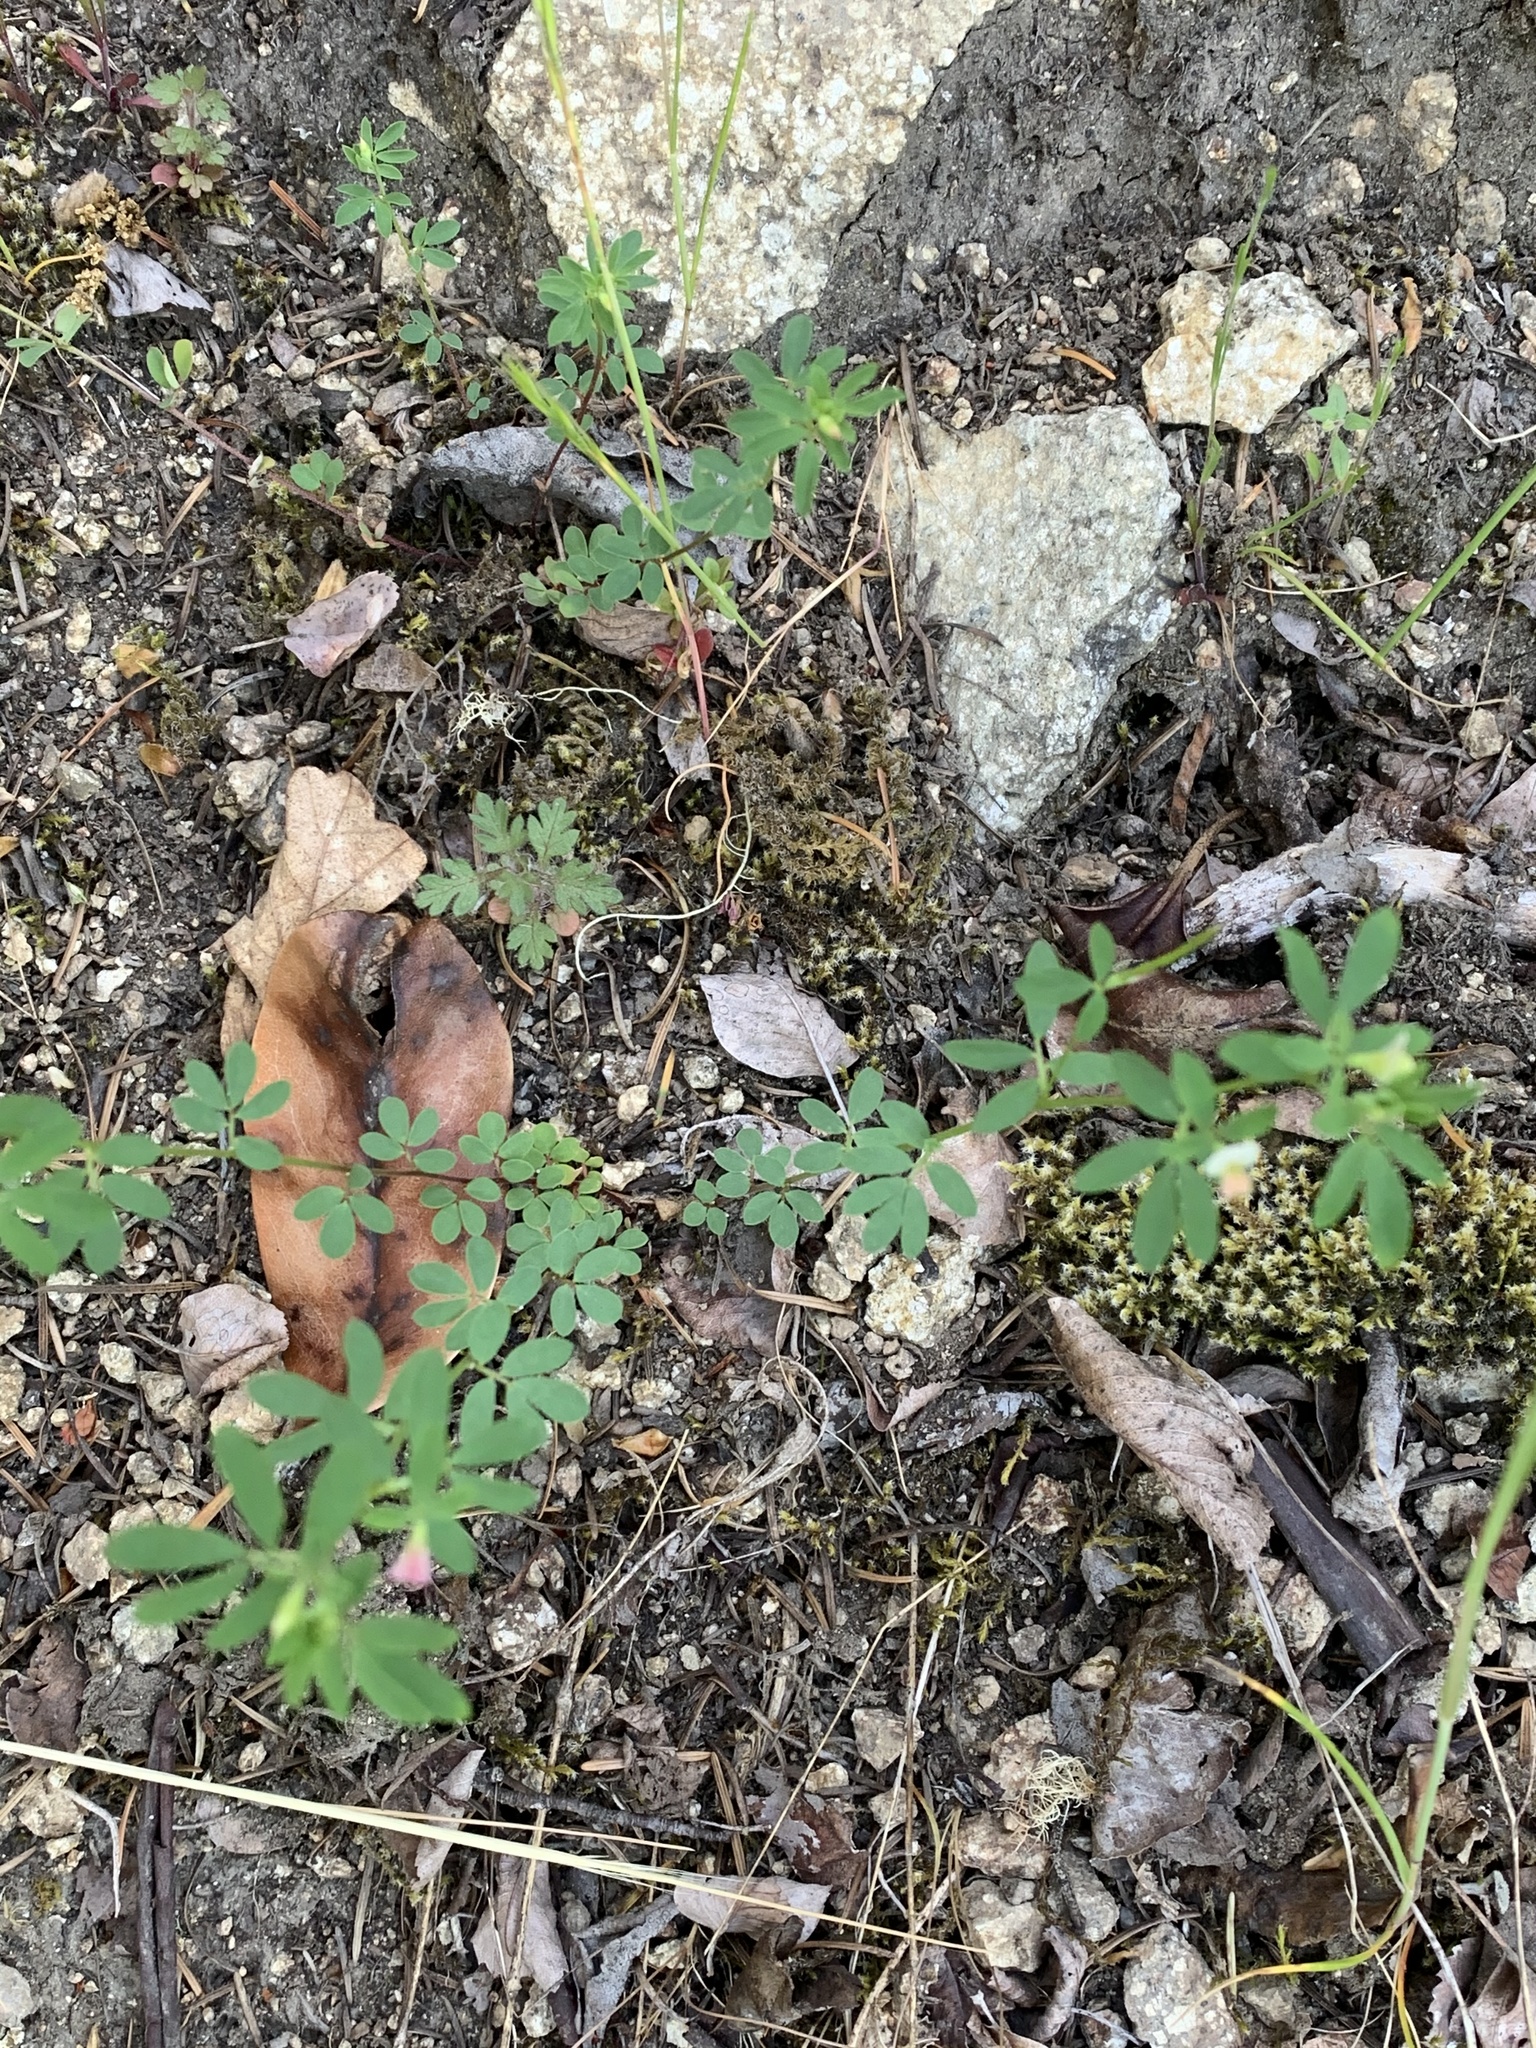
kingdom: Plantae
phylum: Tracheophyta
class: Magnoliopsida
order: Fabales
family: Fabaceae
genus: Acmispon
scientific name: Acmispon parviflorus
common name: Desert deer-vetch
